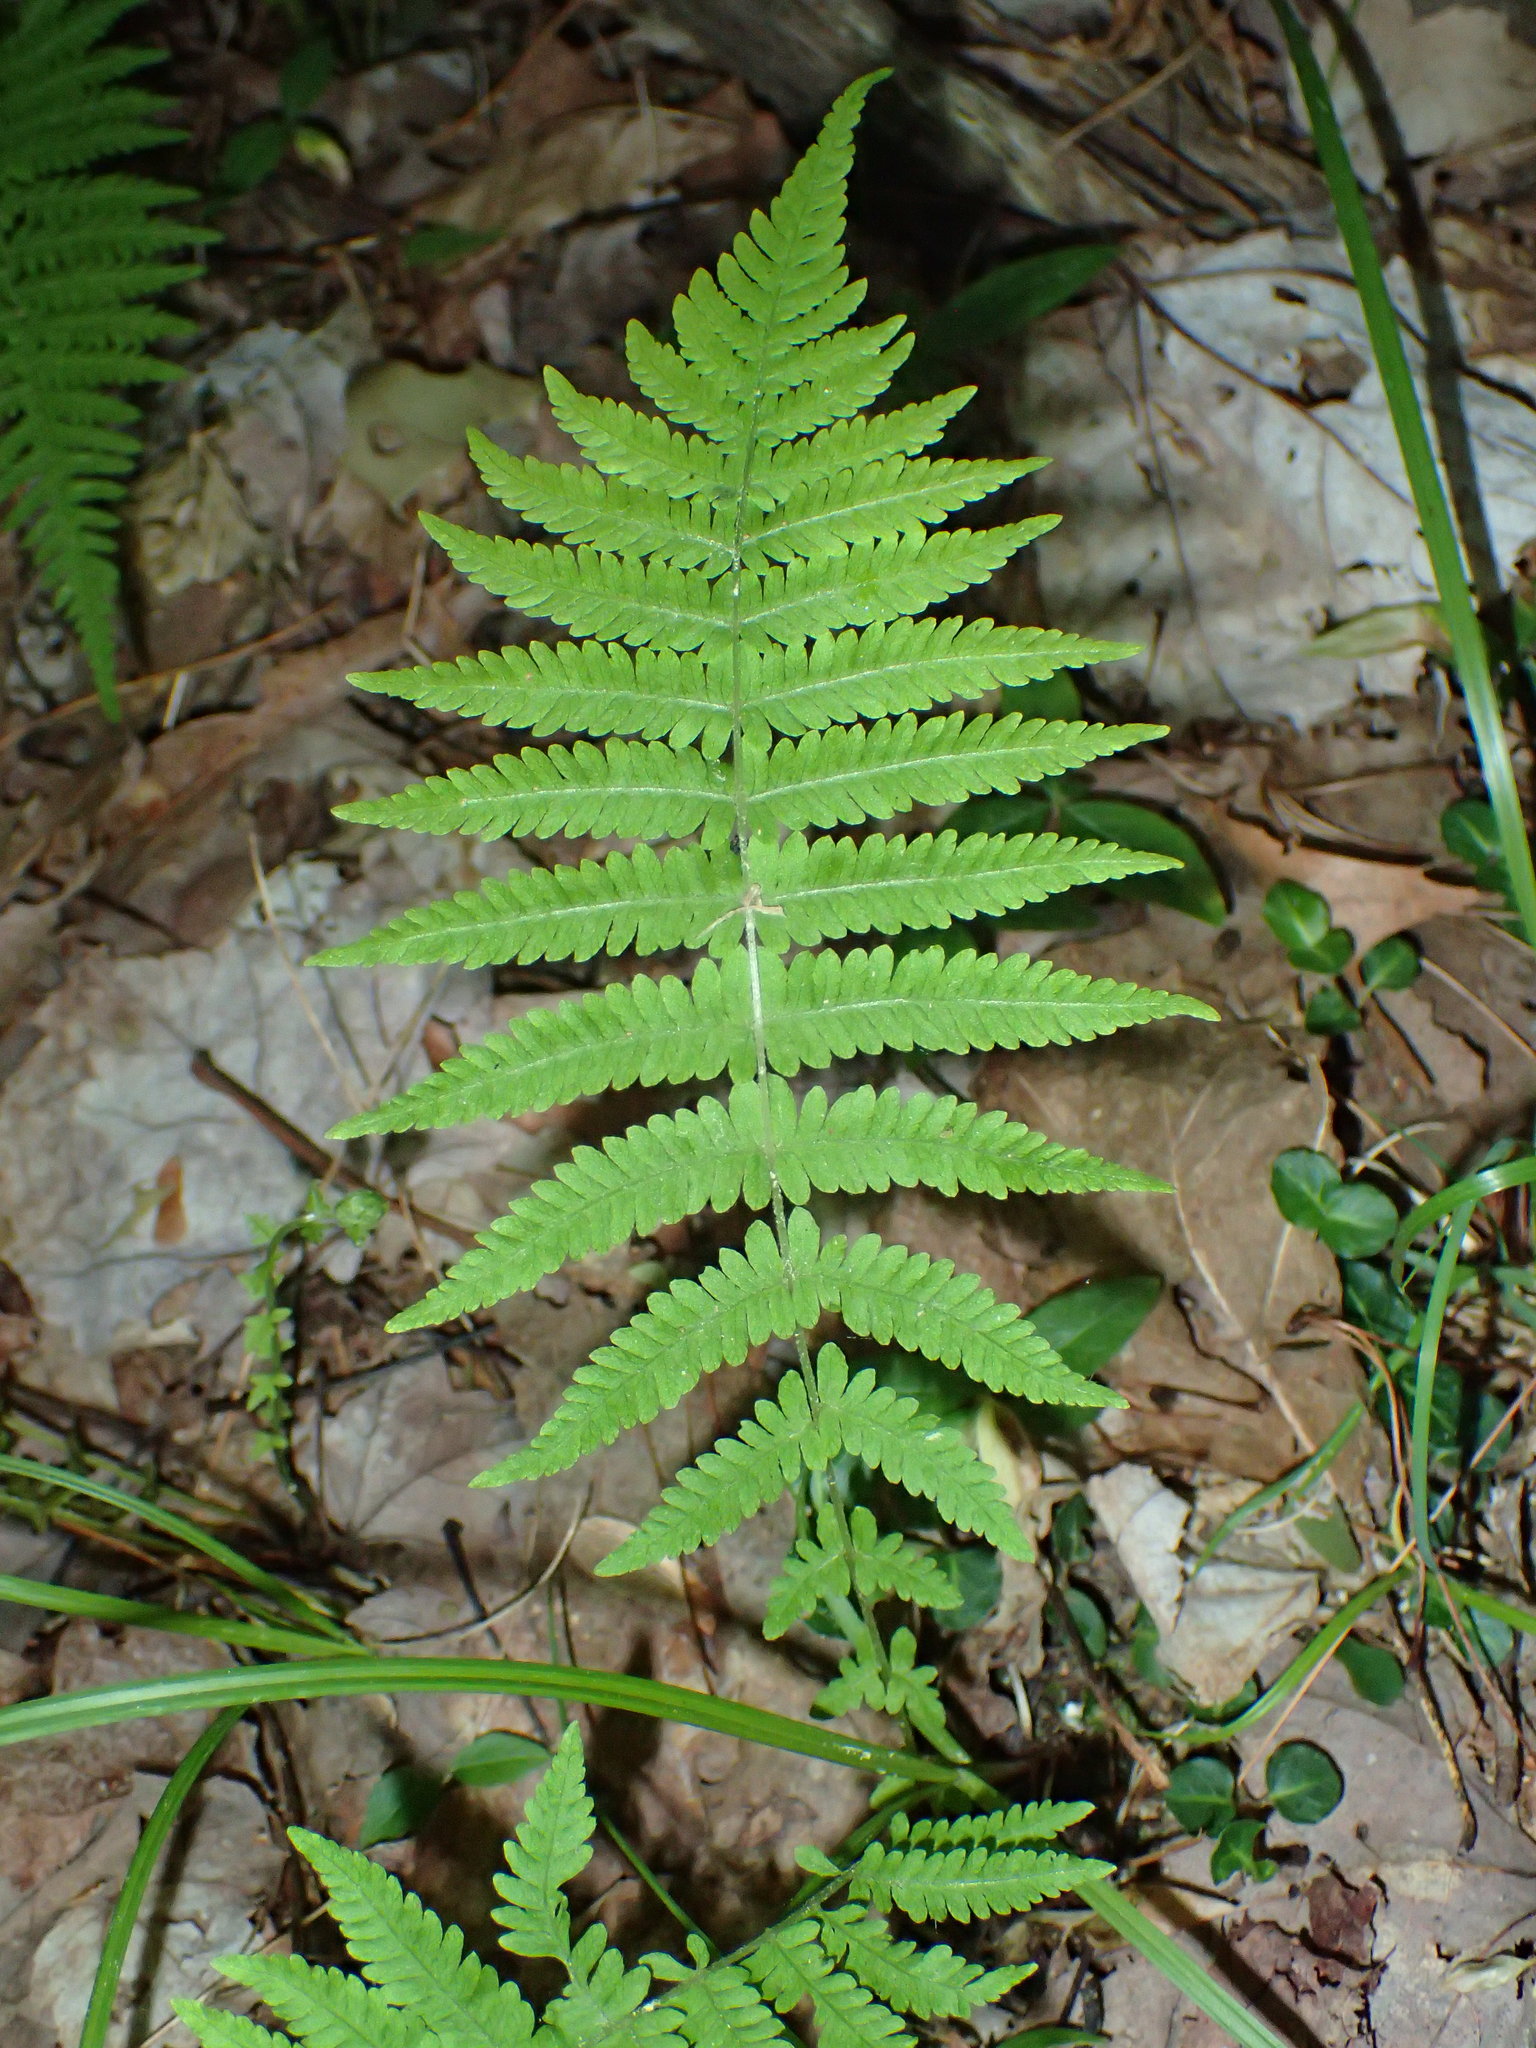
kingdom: Plantae
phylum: Tracheophyta
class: Polypodiopsida
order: Polypodiales
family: Thelypteridaceae
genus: Amauropelta
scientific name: Amauropelta noveboracensis
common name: New york fern
